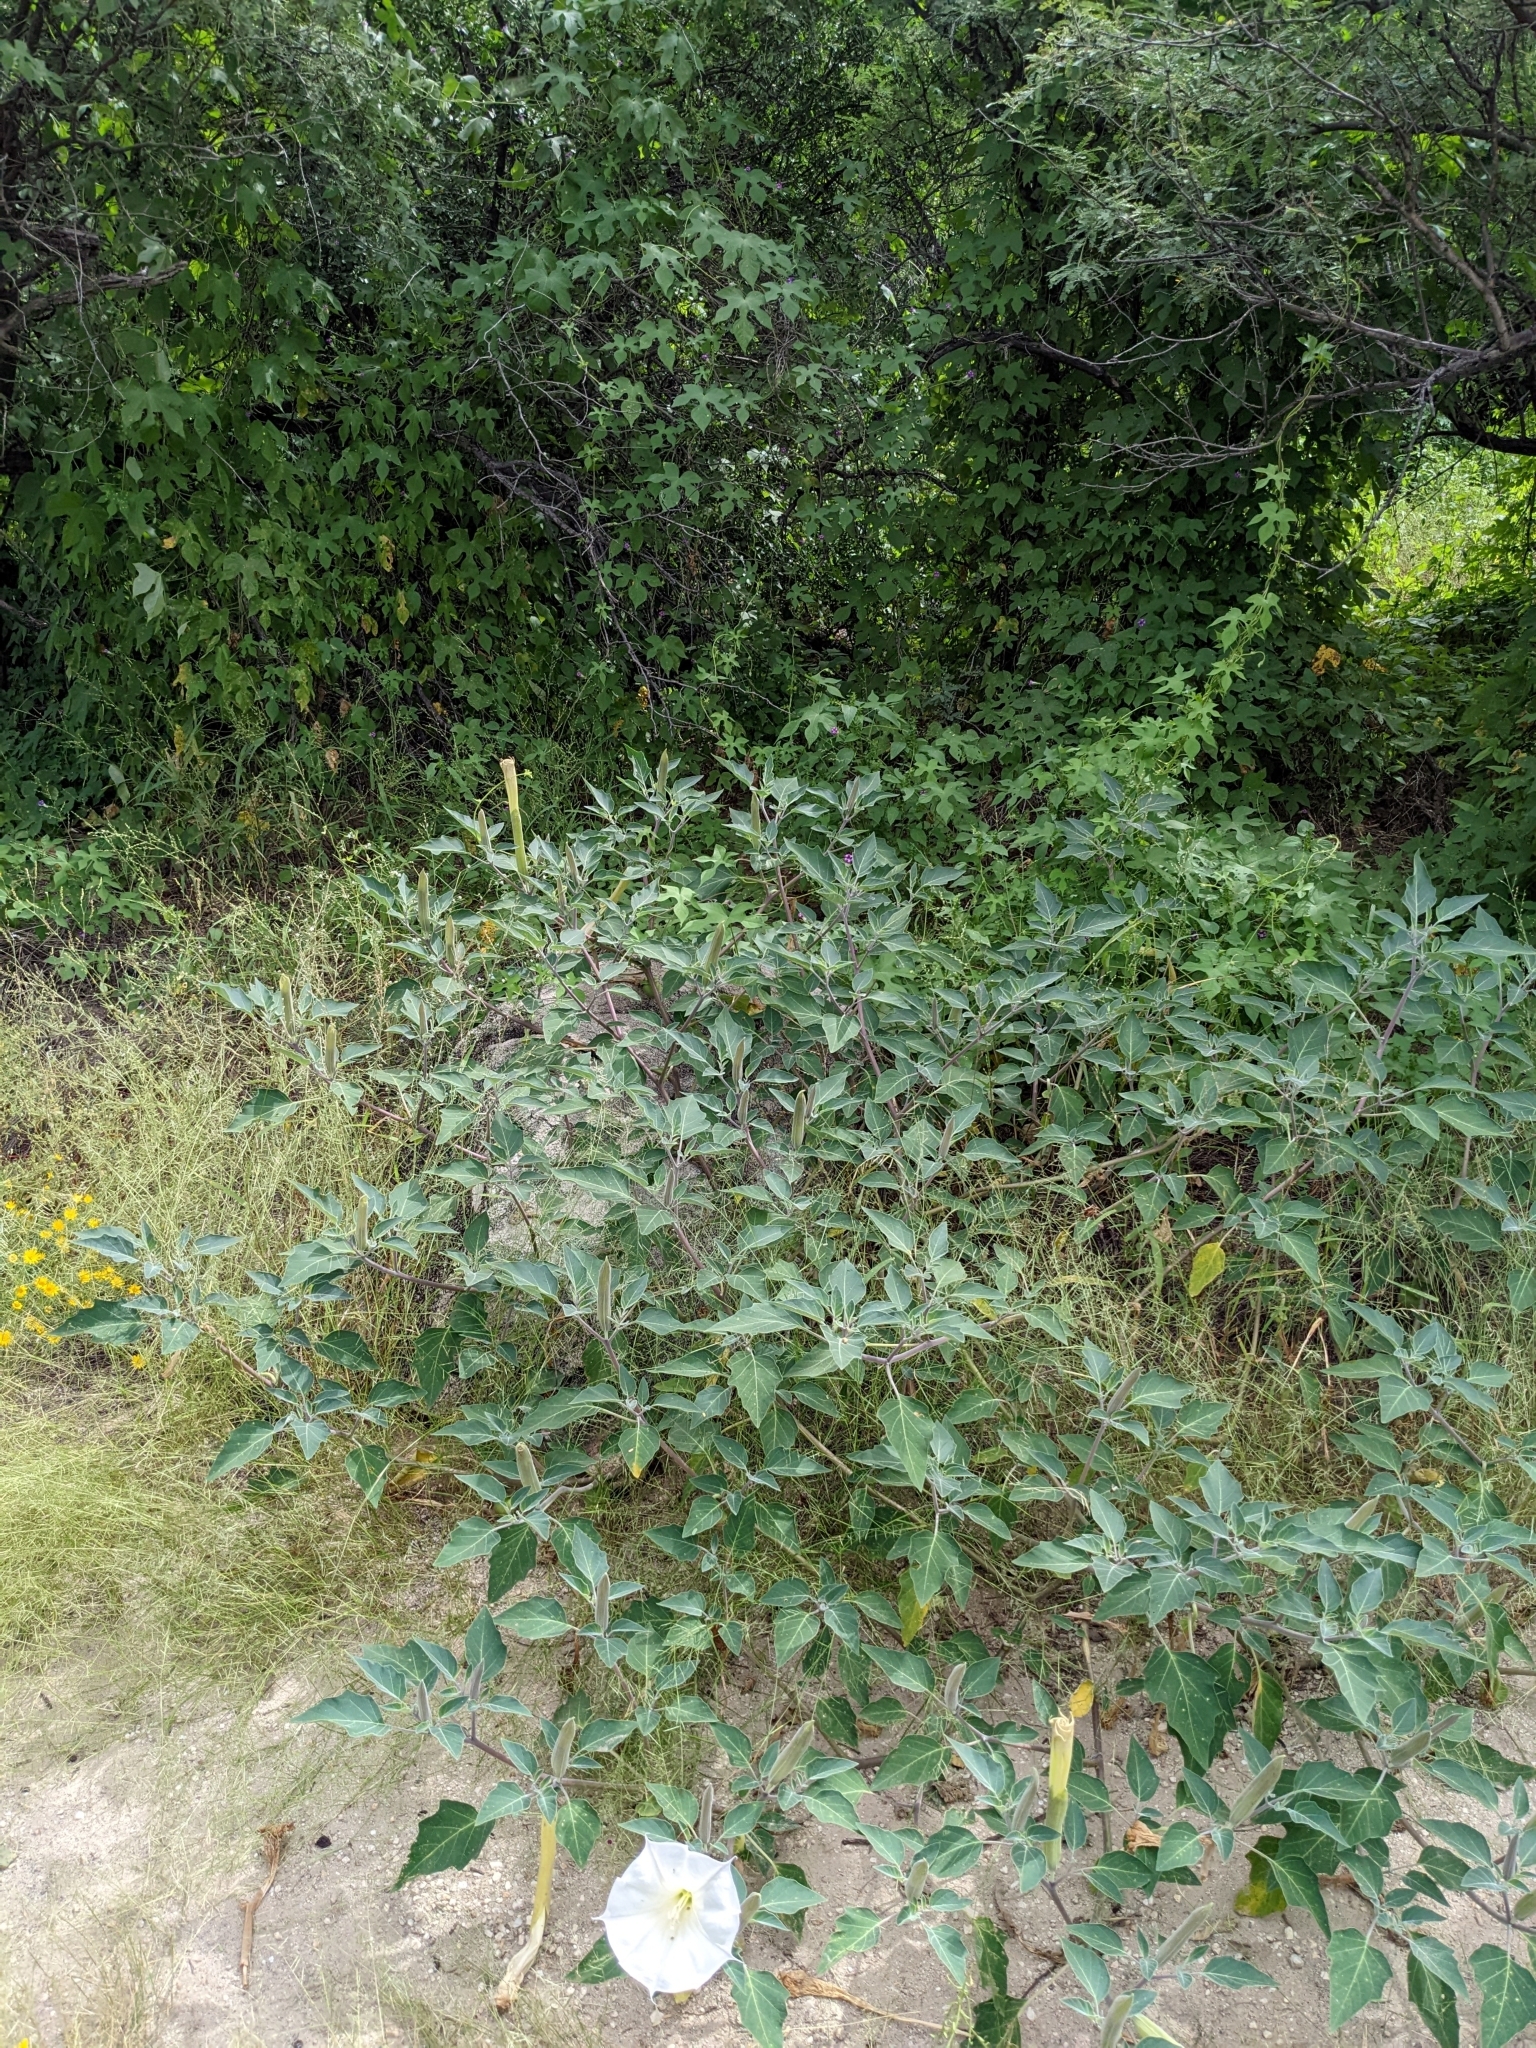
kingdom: Plantae
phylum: Tracheophyta
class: Magnoliopsida
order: Solanales
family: Solanaceae
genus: Datura
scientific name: Datura wrightii
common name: Sacred thorn-apple
